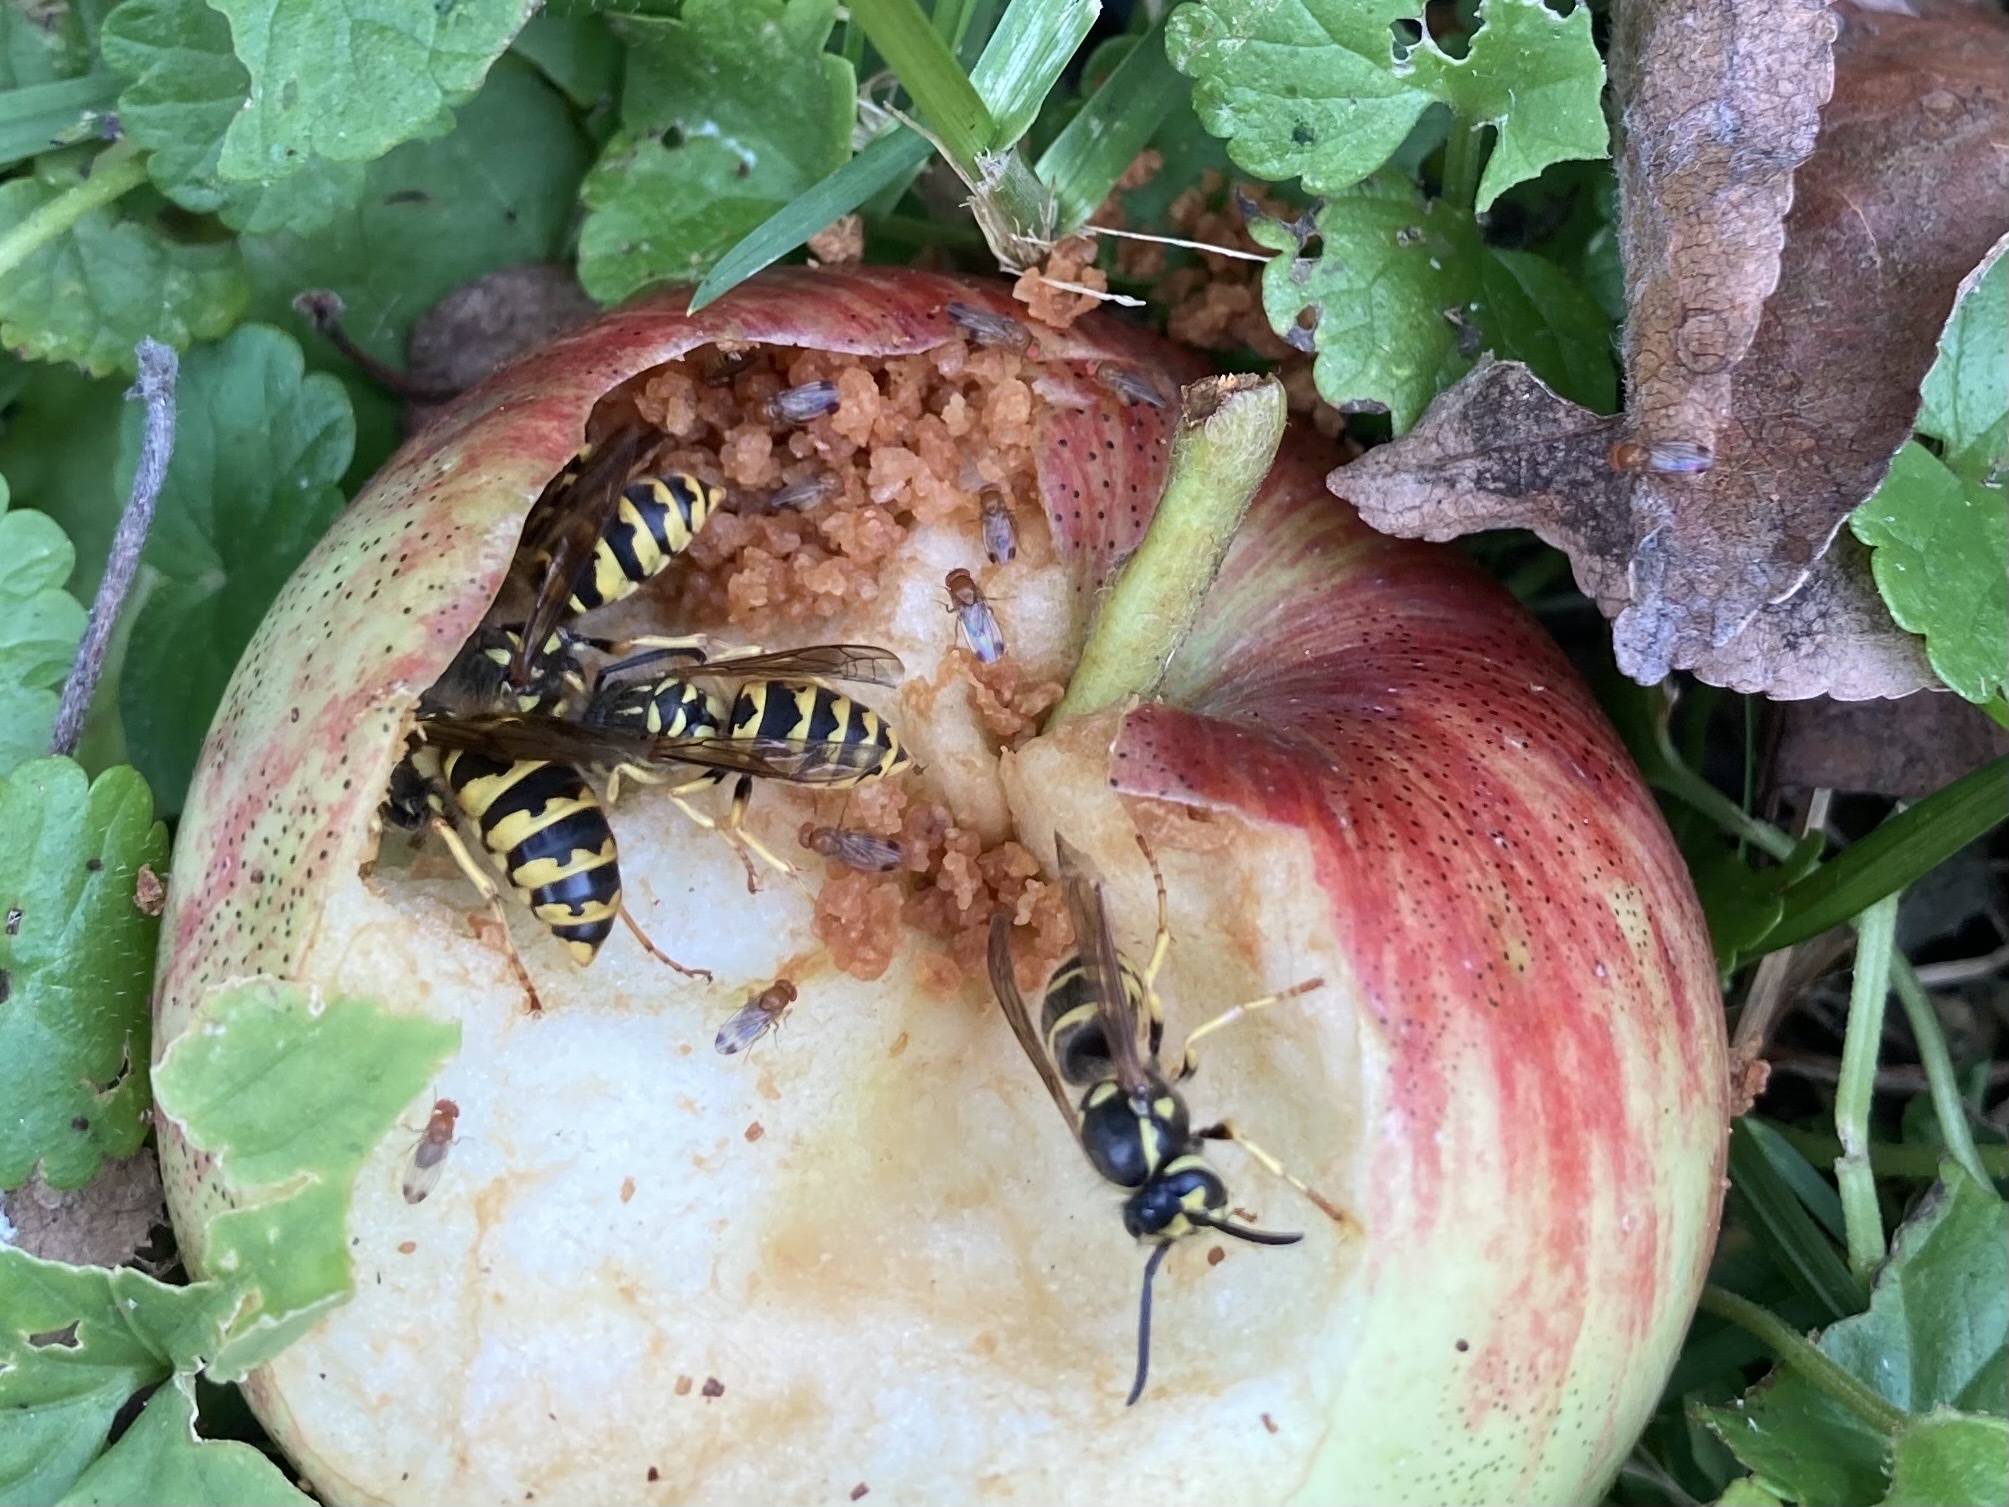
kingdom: Animalia
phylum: Arthropoda
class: Insecta
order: Hymenoptera
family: Vespidae
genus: Vespula
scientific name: Vespula flavopilosa
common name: Downy yellowjacket
